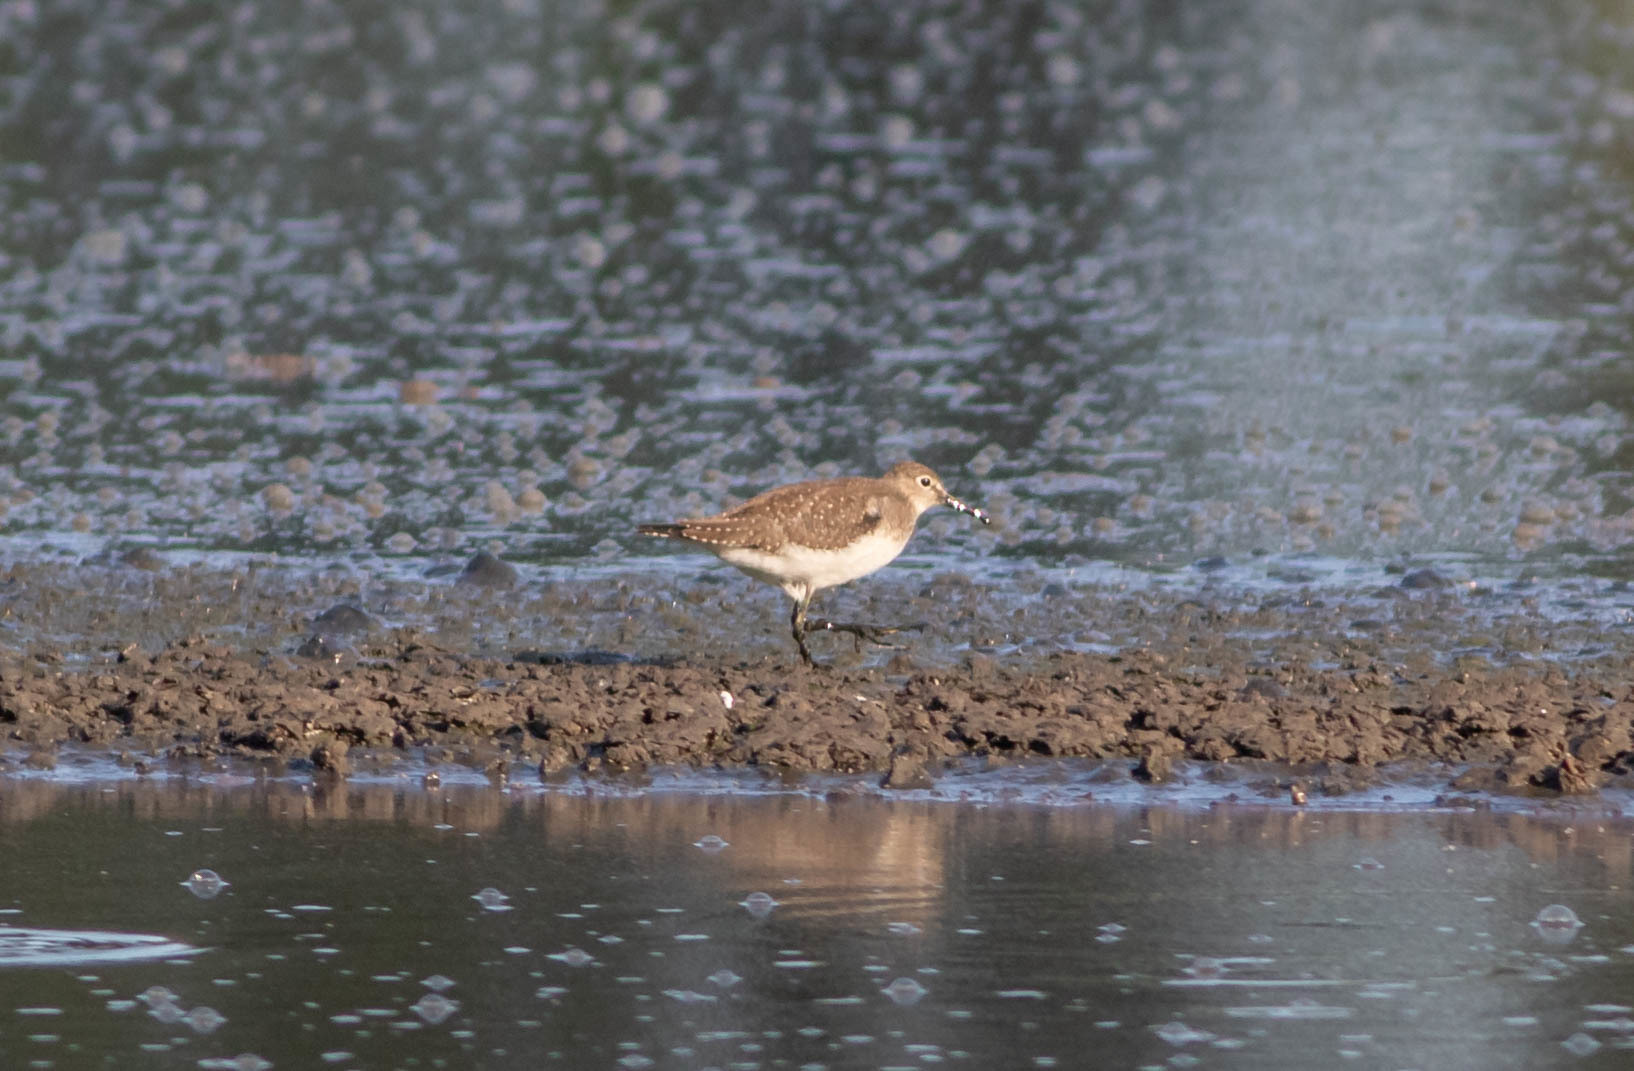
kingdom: Animalia
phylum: Chordata
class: Aves
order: Charadriiformes
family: Scolopacidae
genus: Tringa
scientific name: Tringa solitaria
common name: Solitary sandpiper
